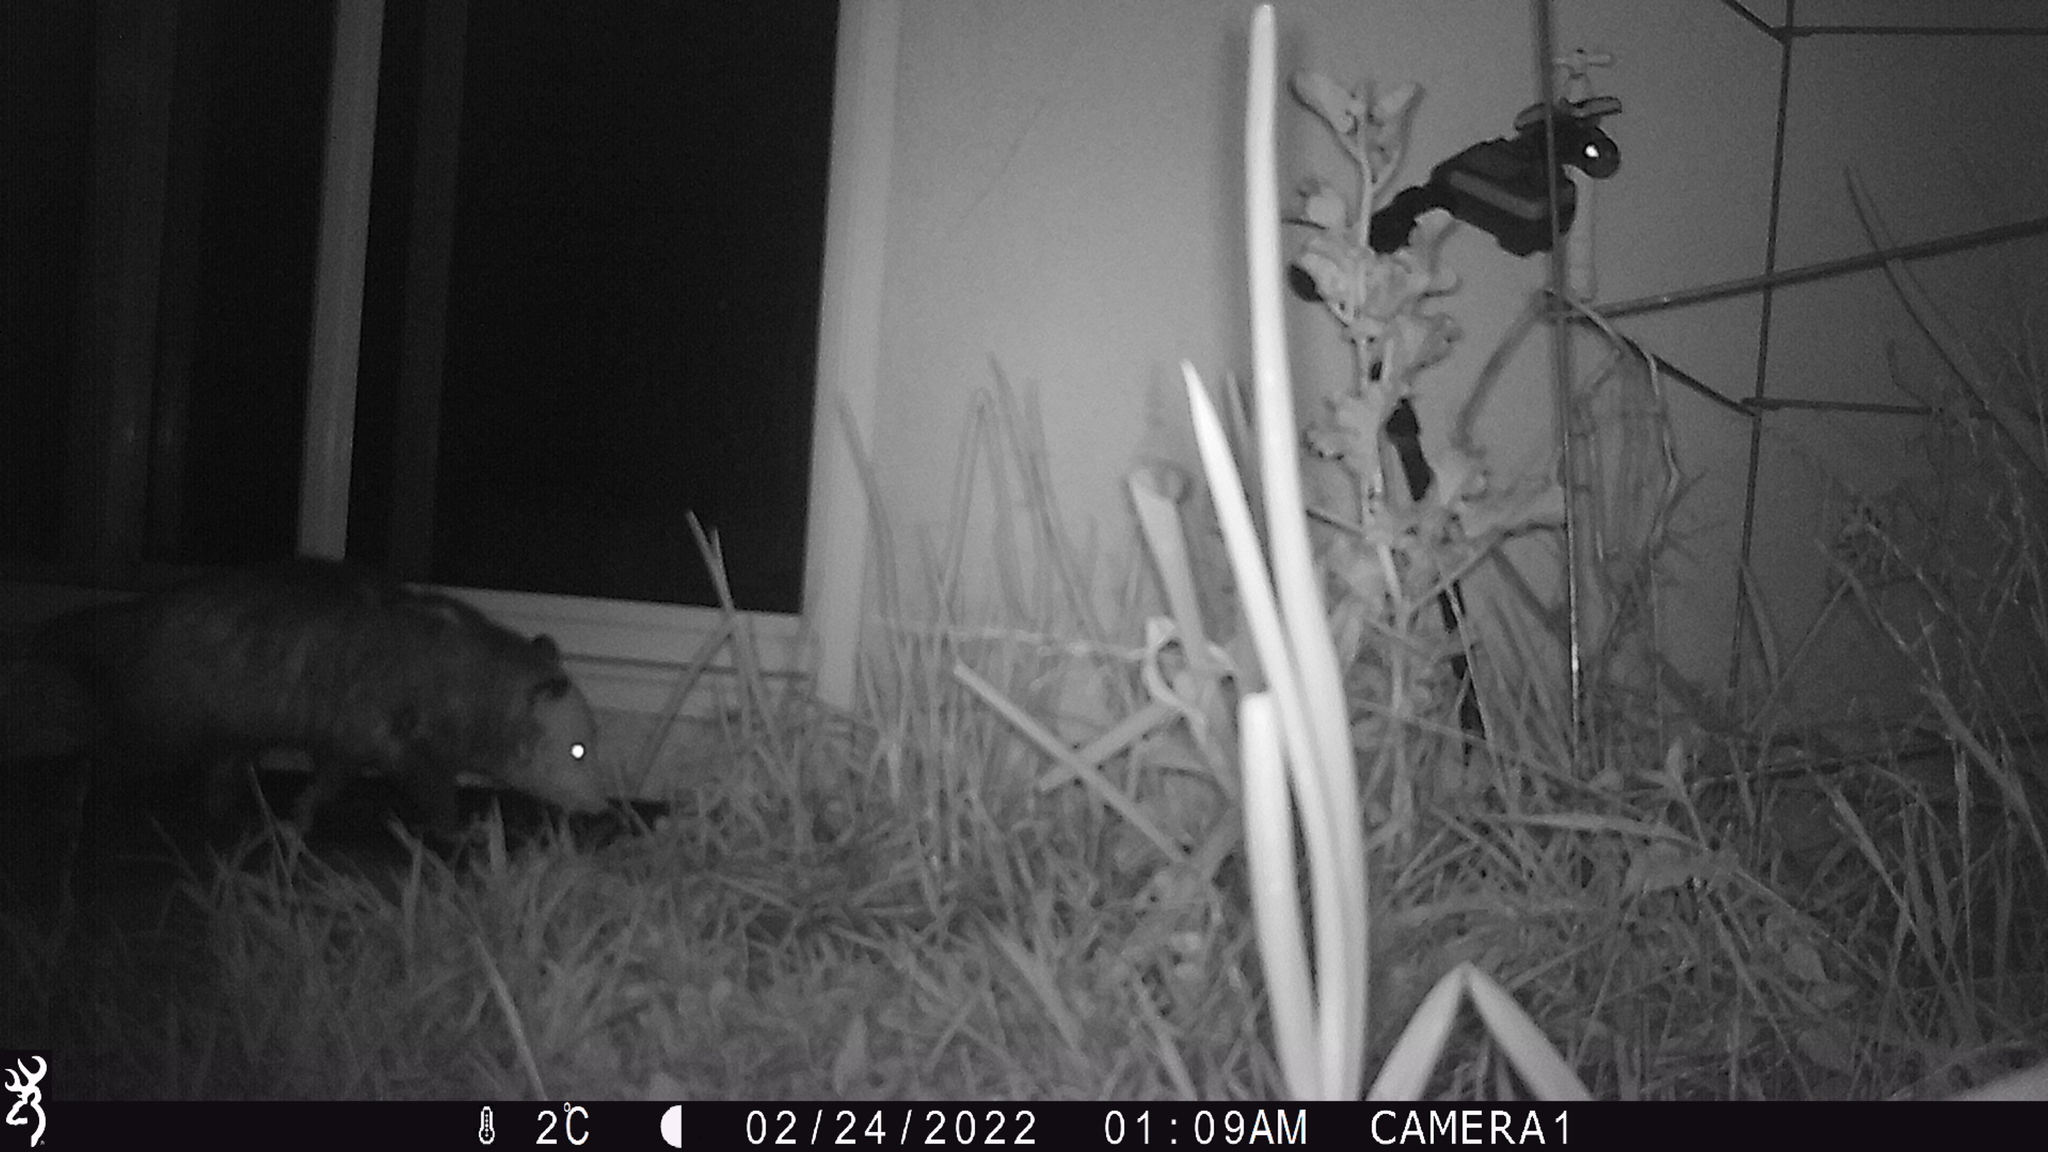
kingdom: Animalia
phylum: Chordata
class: Mammalia
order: Didelphimorphia
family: Didelphidae
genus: Didelphis
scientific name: Didelphis virginiana
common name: Virginia opossum
